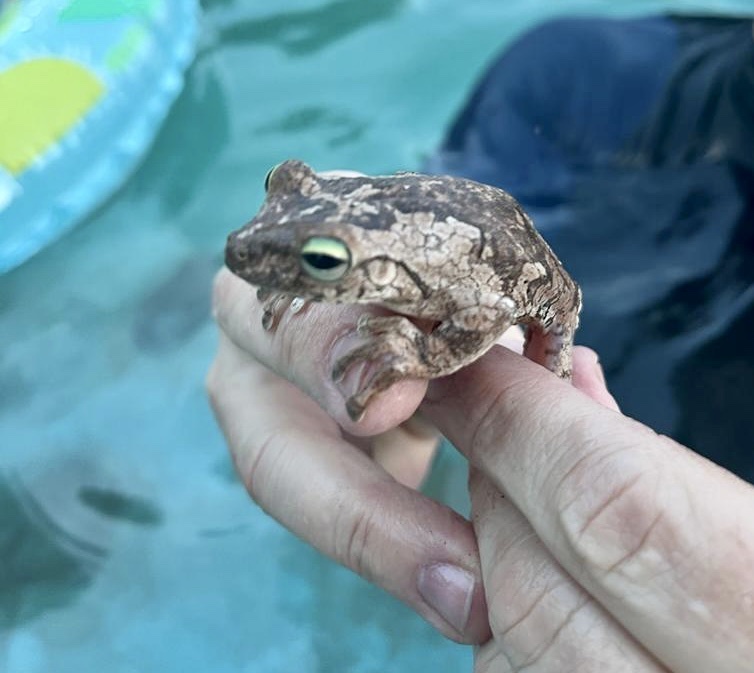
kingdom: Animalia
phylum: Chordata
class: Amphibia
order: Anura
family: Hylidae
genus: Boana
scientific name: Boana platanera
